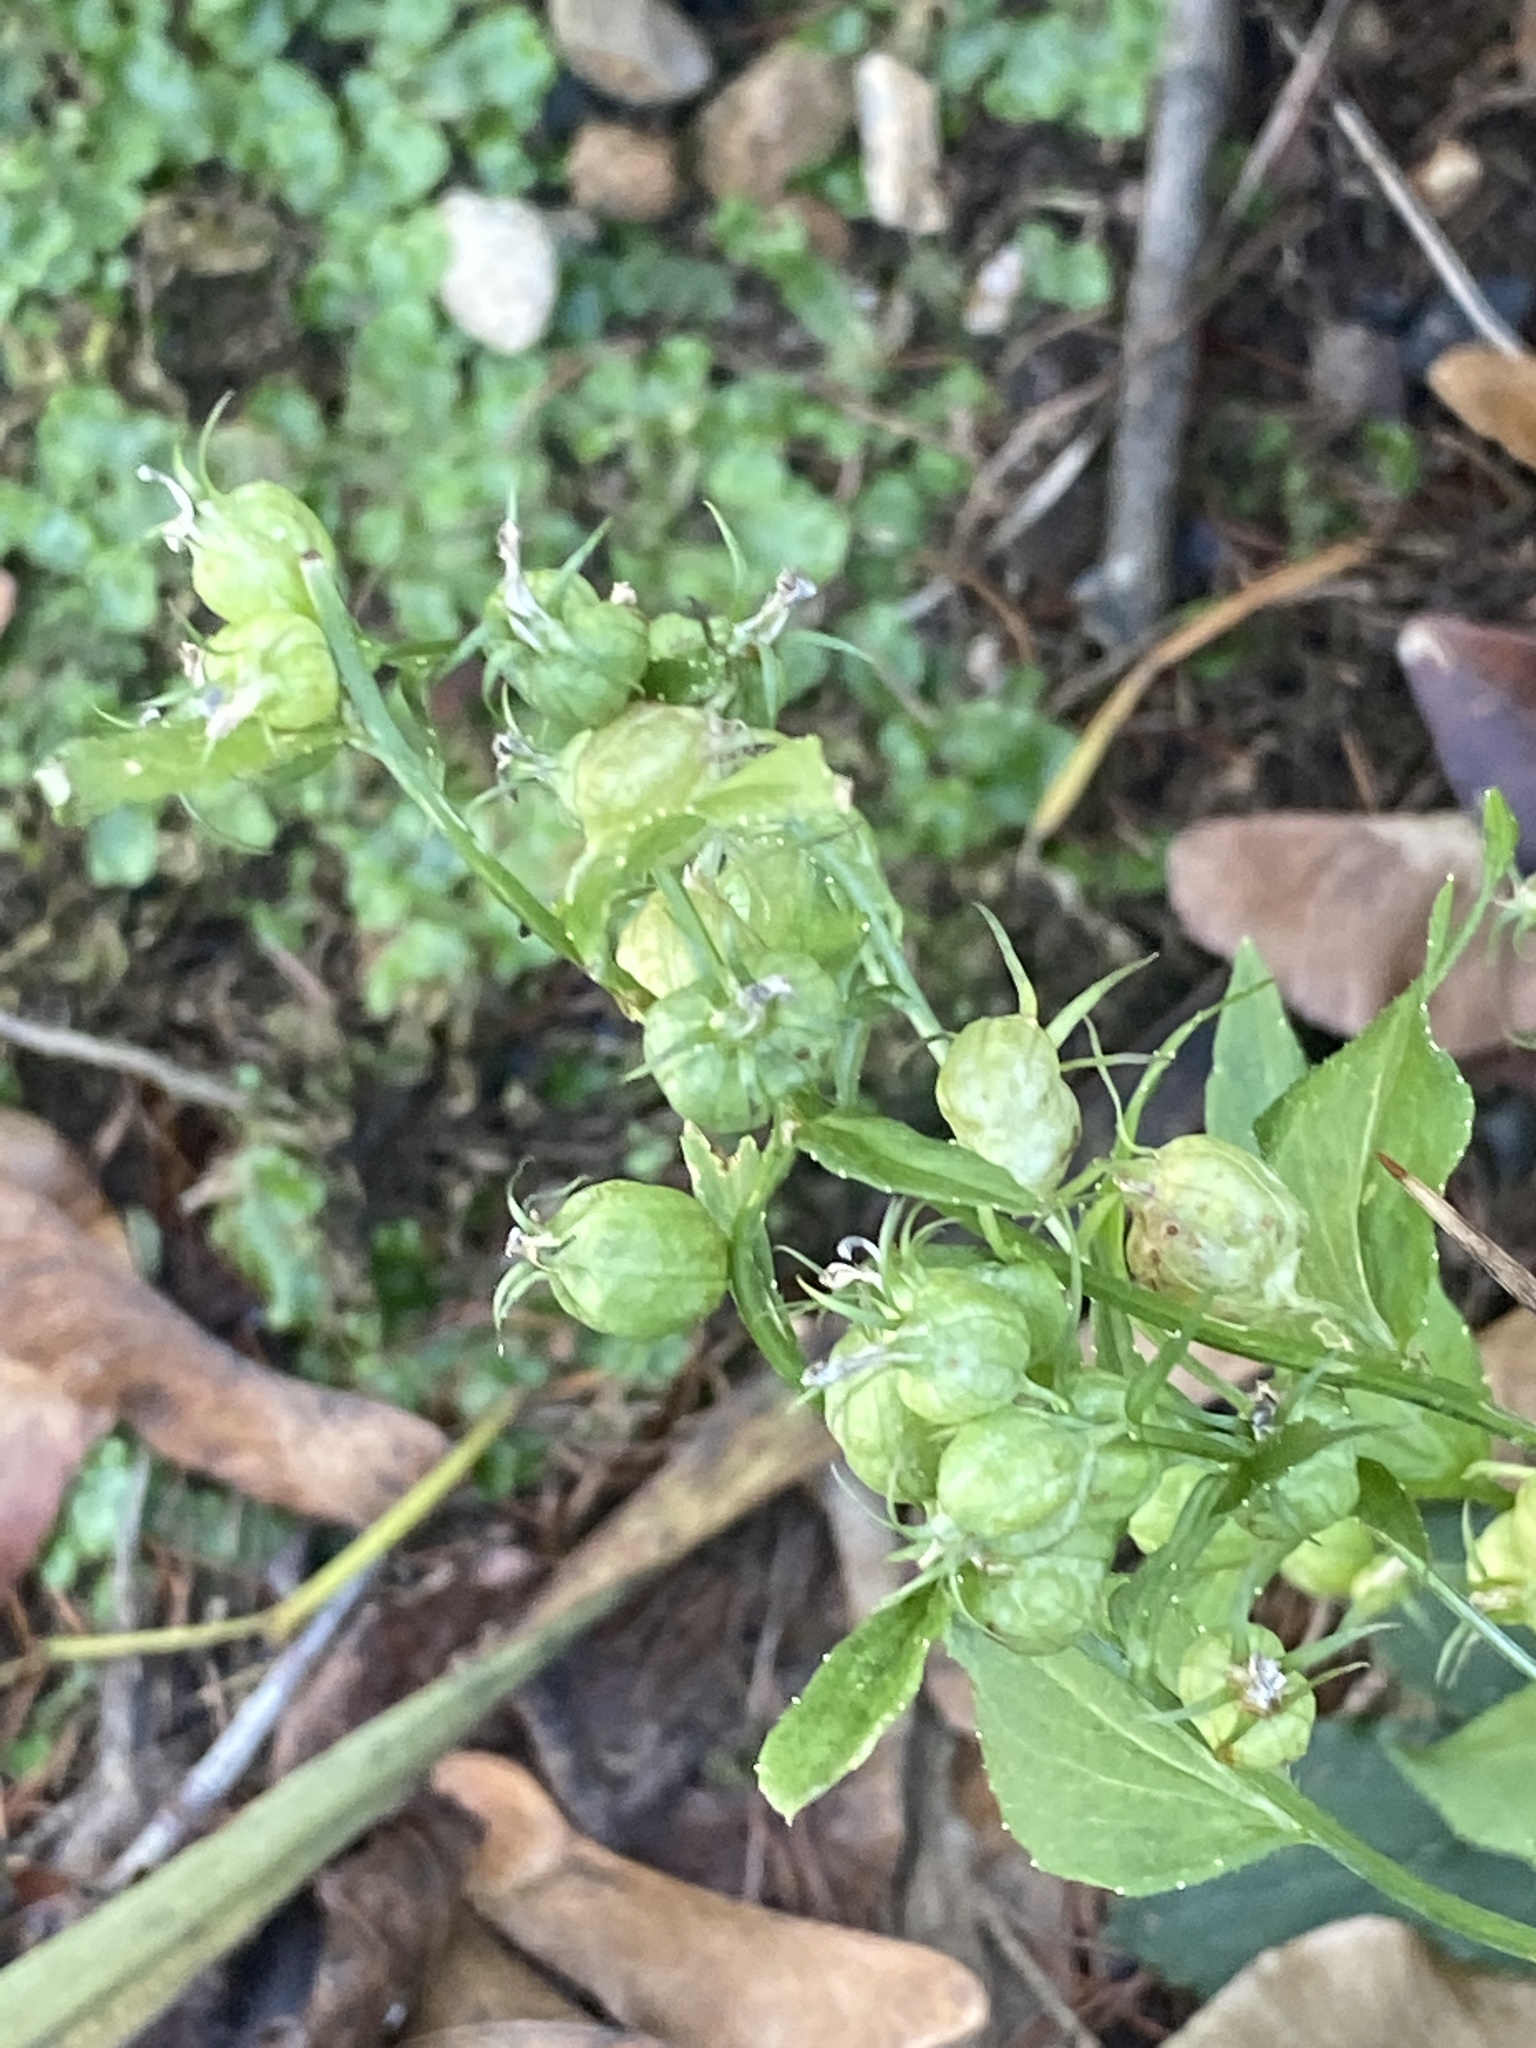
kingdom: Plantae
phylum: Tracheophyta
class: Magnoliopsida
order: Asterales
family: Campanulaceae
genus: Lobelia
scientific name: Lobelia inflata
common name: Indian tobacco
